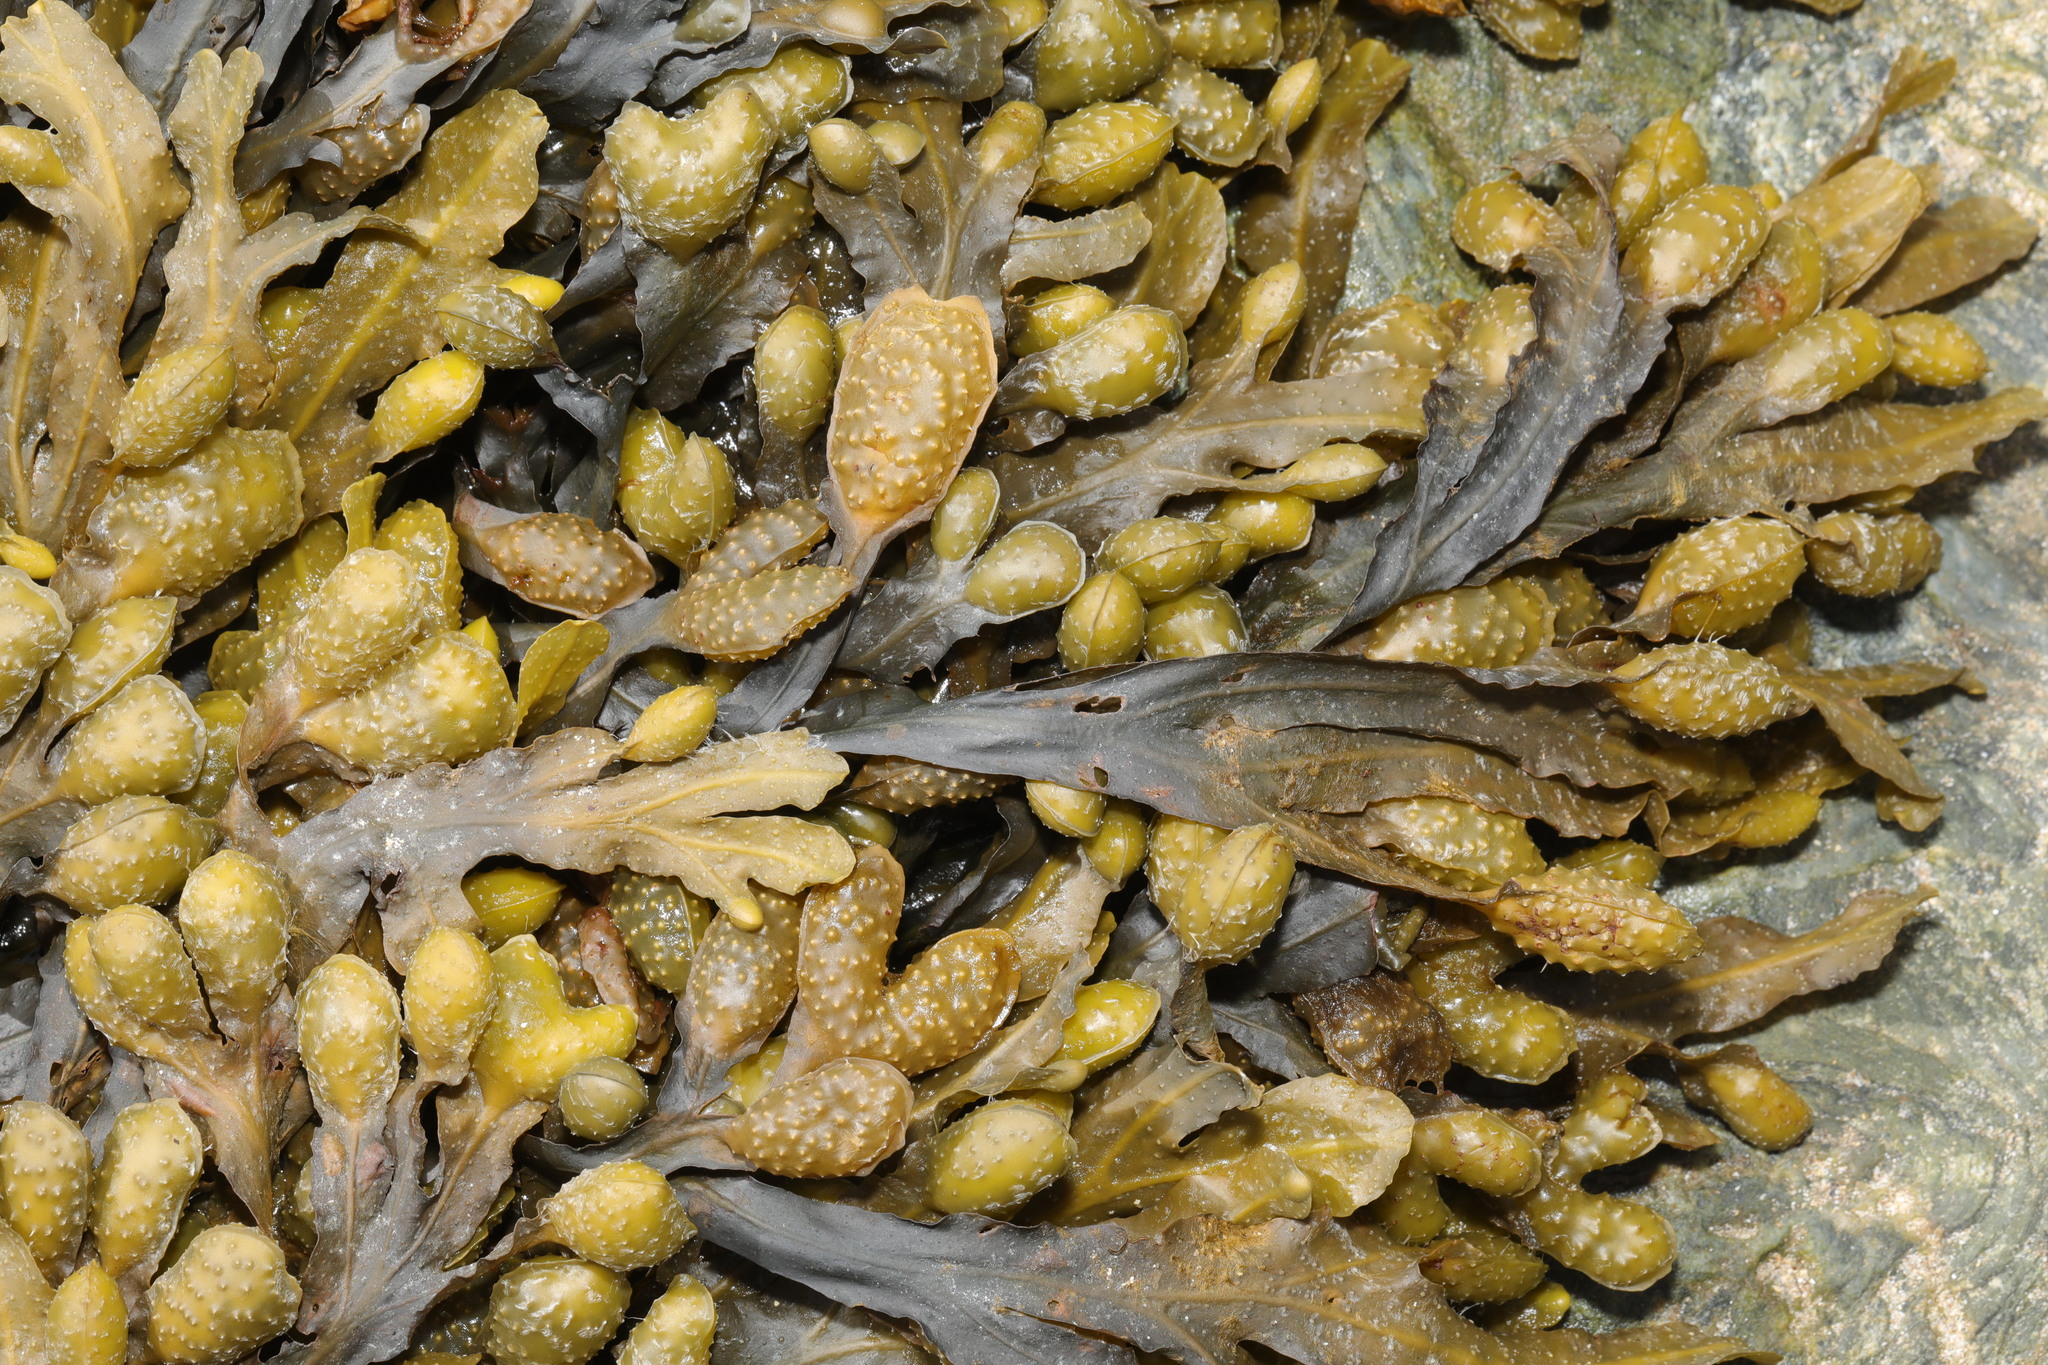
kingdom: Chromista
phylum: Ochrophyta
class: Phaeophyceae
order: Fucales
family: Fucaceae
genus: Fucus
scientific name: Fucus vesiculosus
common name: Bladder wrack
